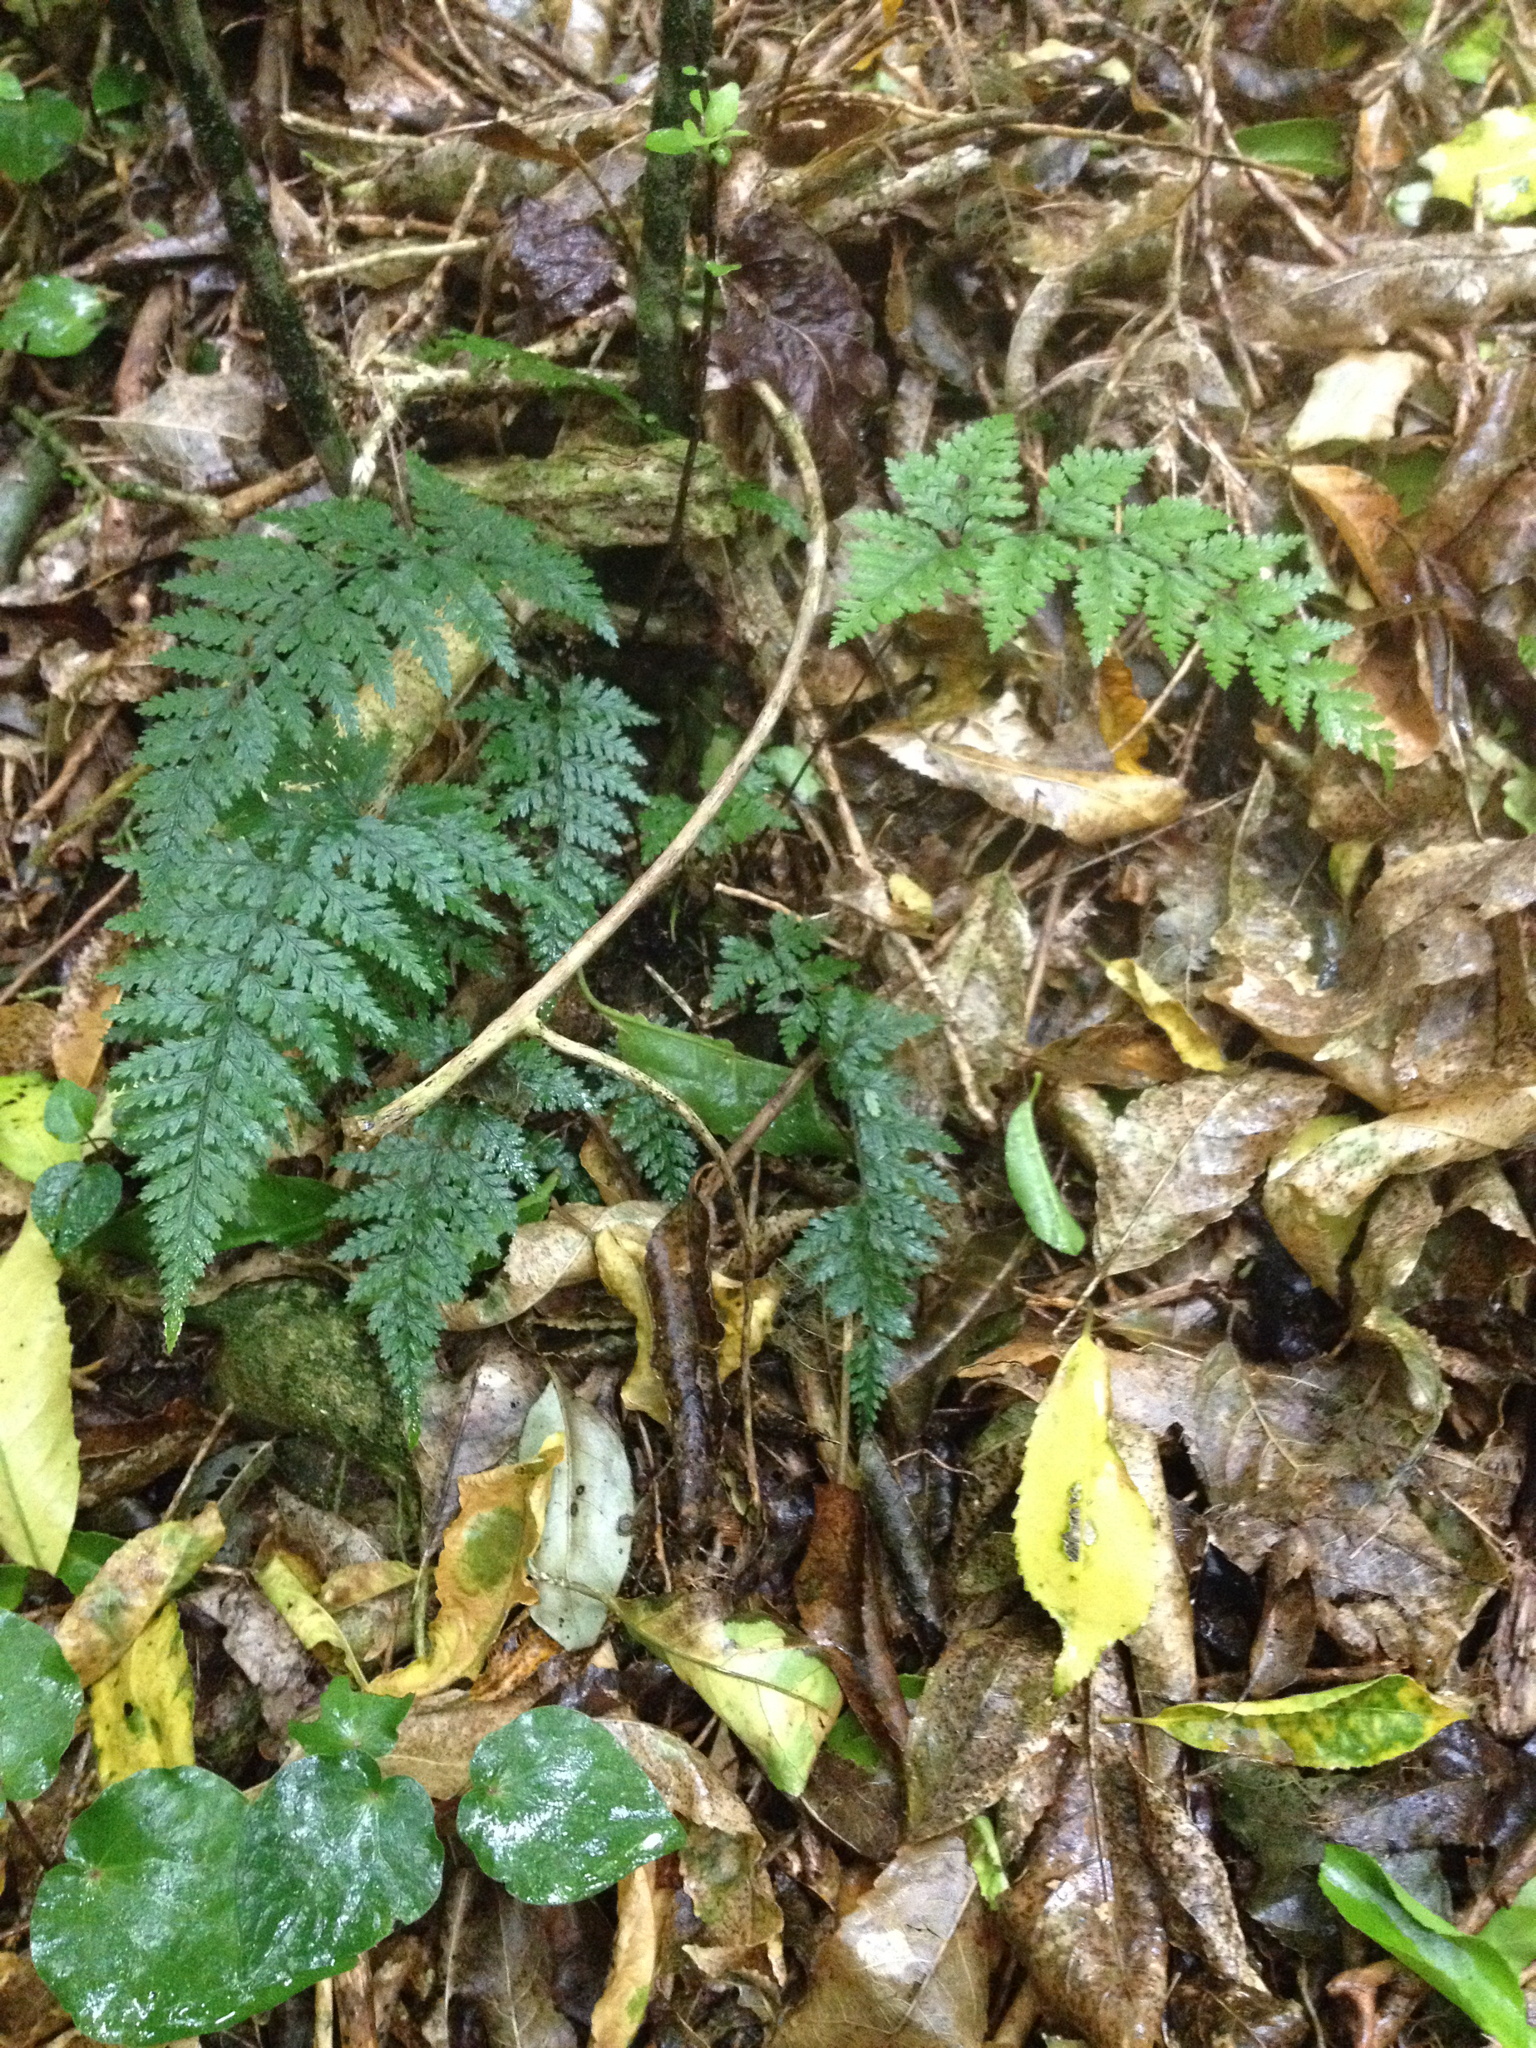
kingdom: Plantae
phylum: Tracheophyta
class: Polypodiopsida
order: Polypodiales
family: Dryopteridaceae
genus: Parapolystichum
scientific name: Parapolystichum glabellum
